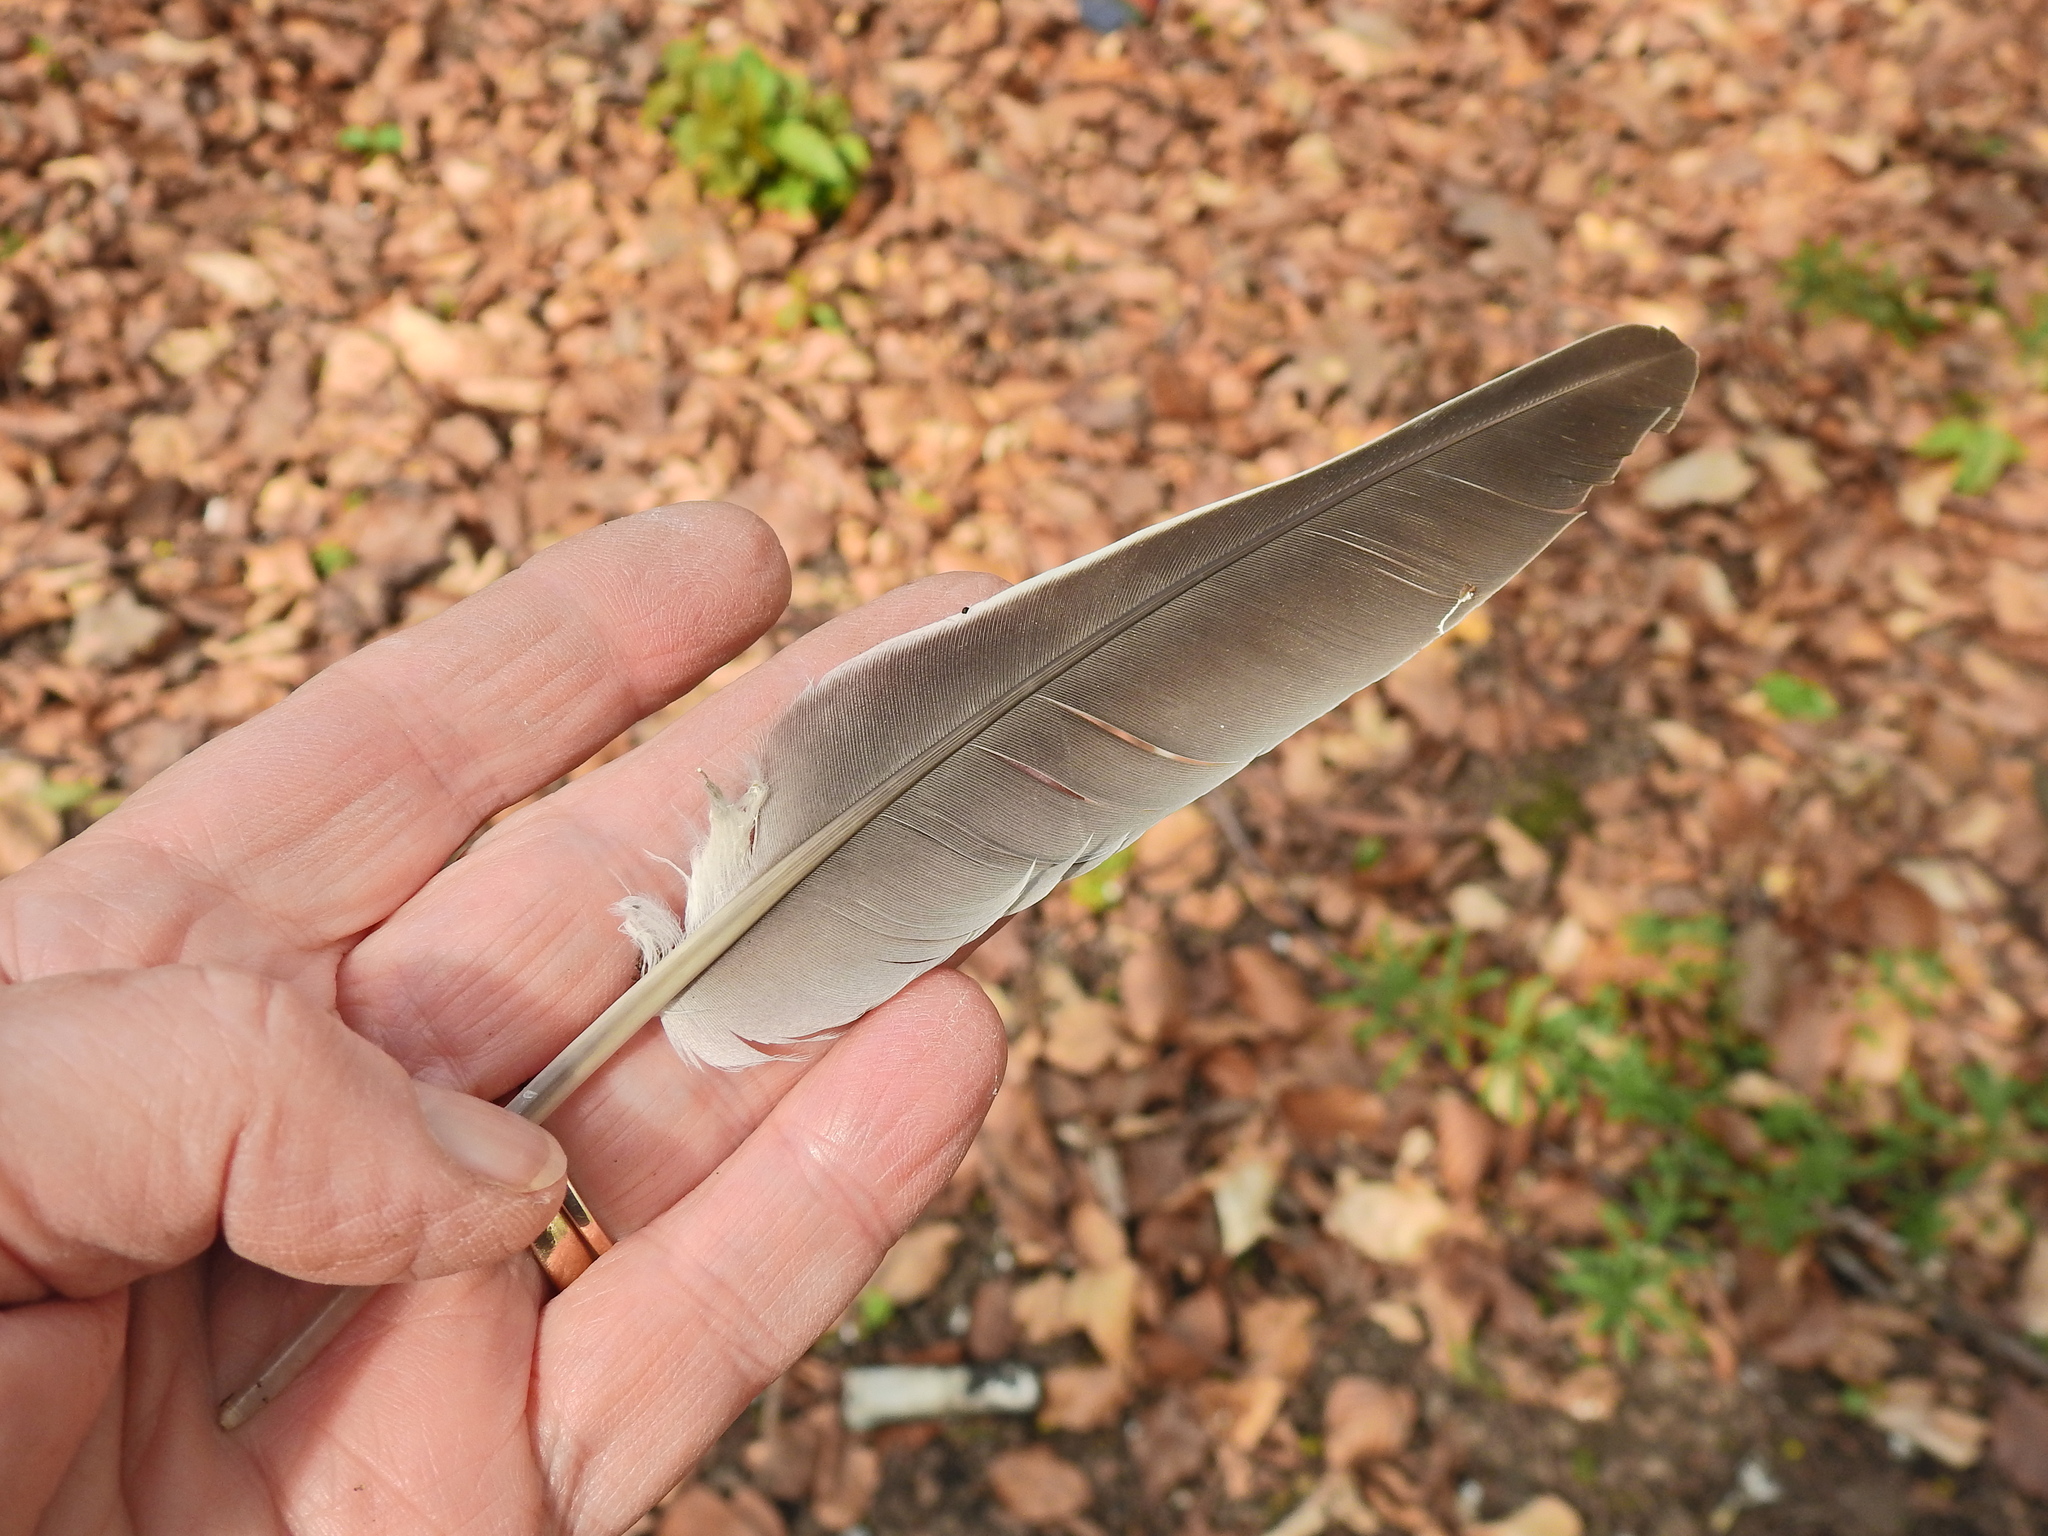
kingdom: Animalia
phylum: Chordata
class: Aves
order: Columbiformes
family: Columbidae
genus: Columba
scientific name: Columba palumbus
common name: Common wood pigeon
